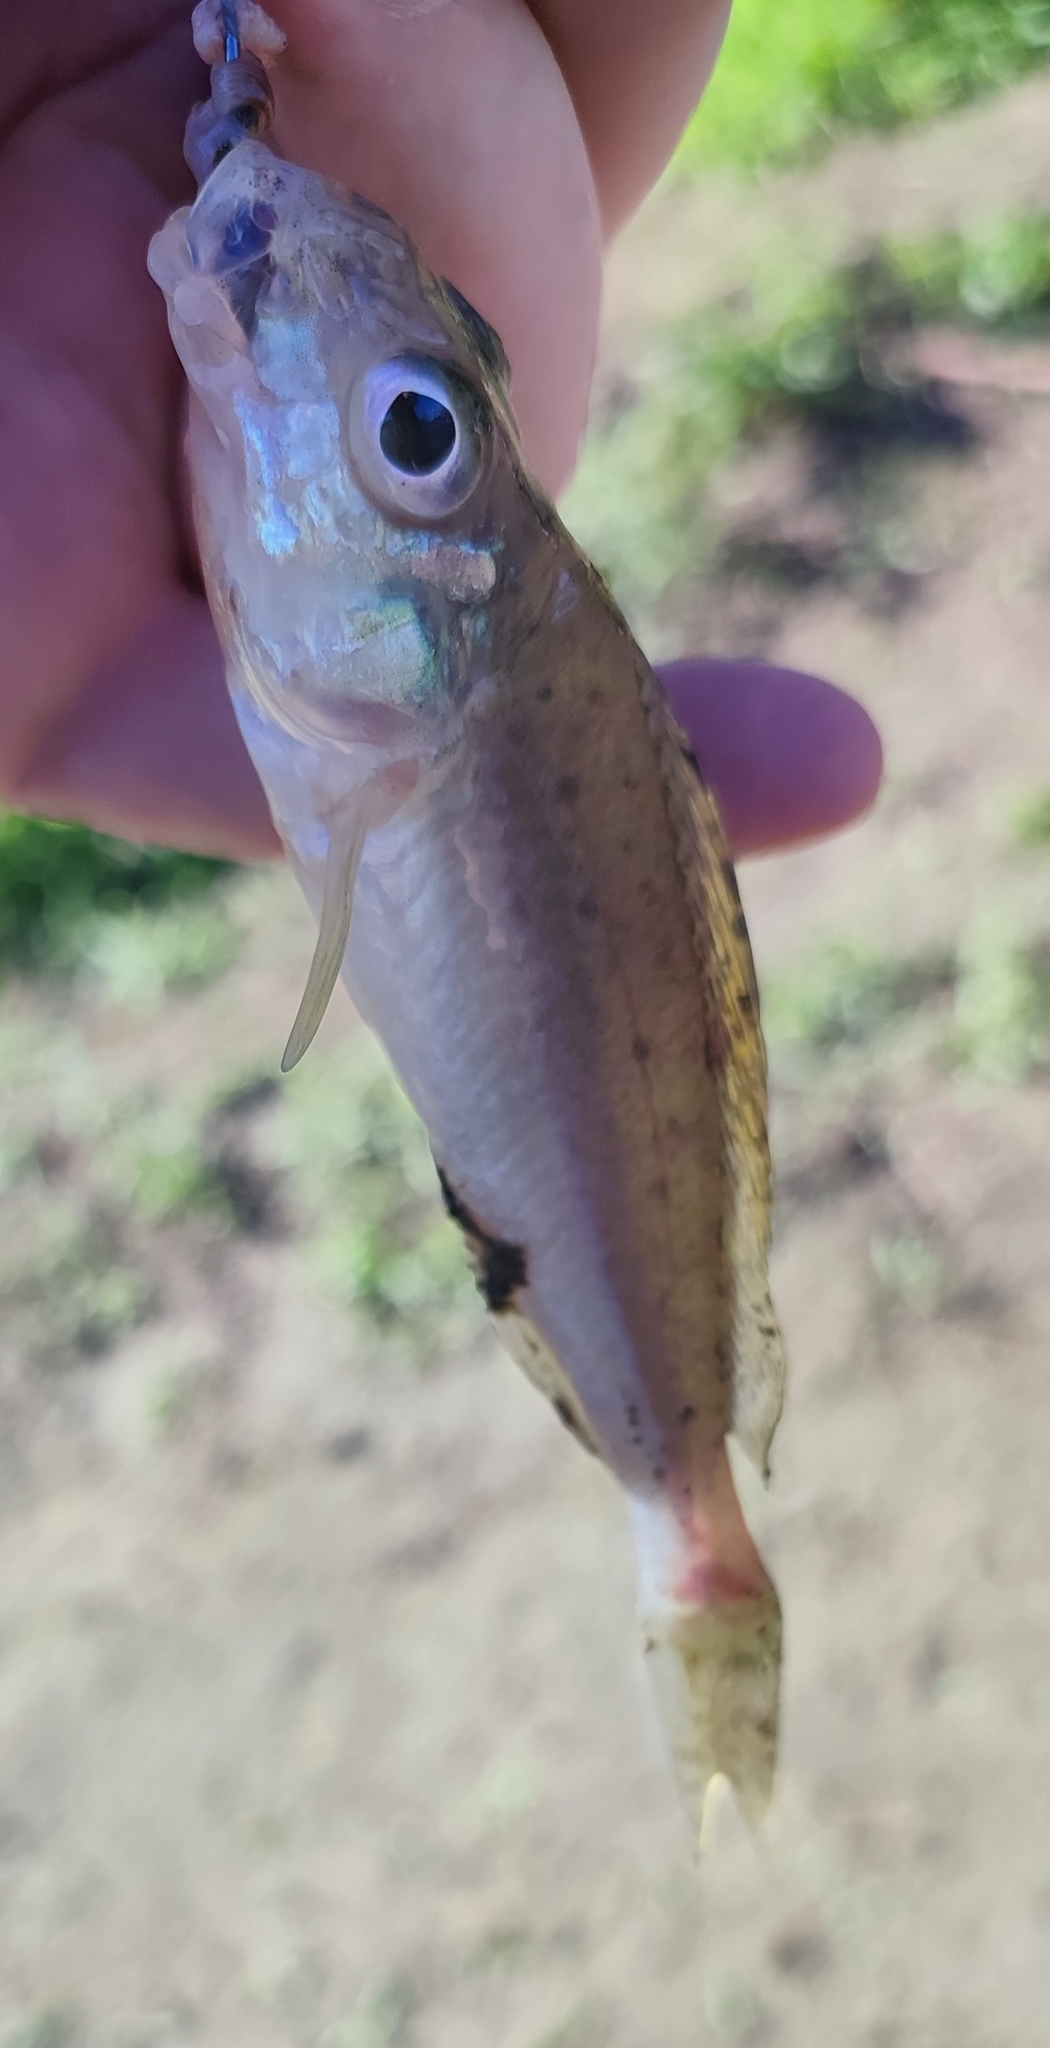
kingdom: Animalia
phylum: Chordata
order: Perciformes
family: Percidae
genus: Gymnocephalus
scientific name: Gymnocephalus cernua
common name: Ruffe
